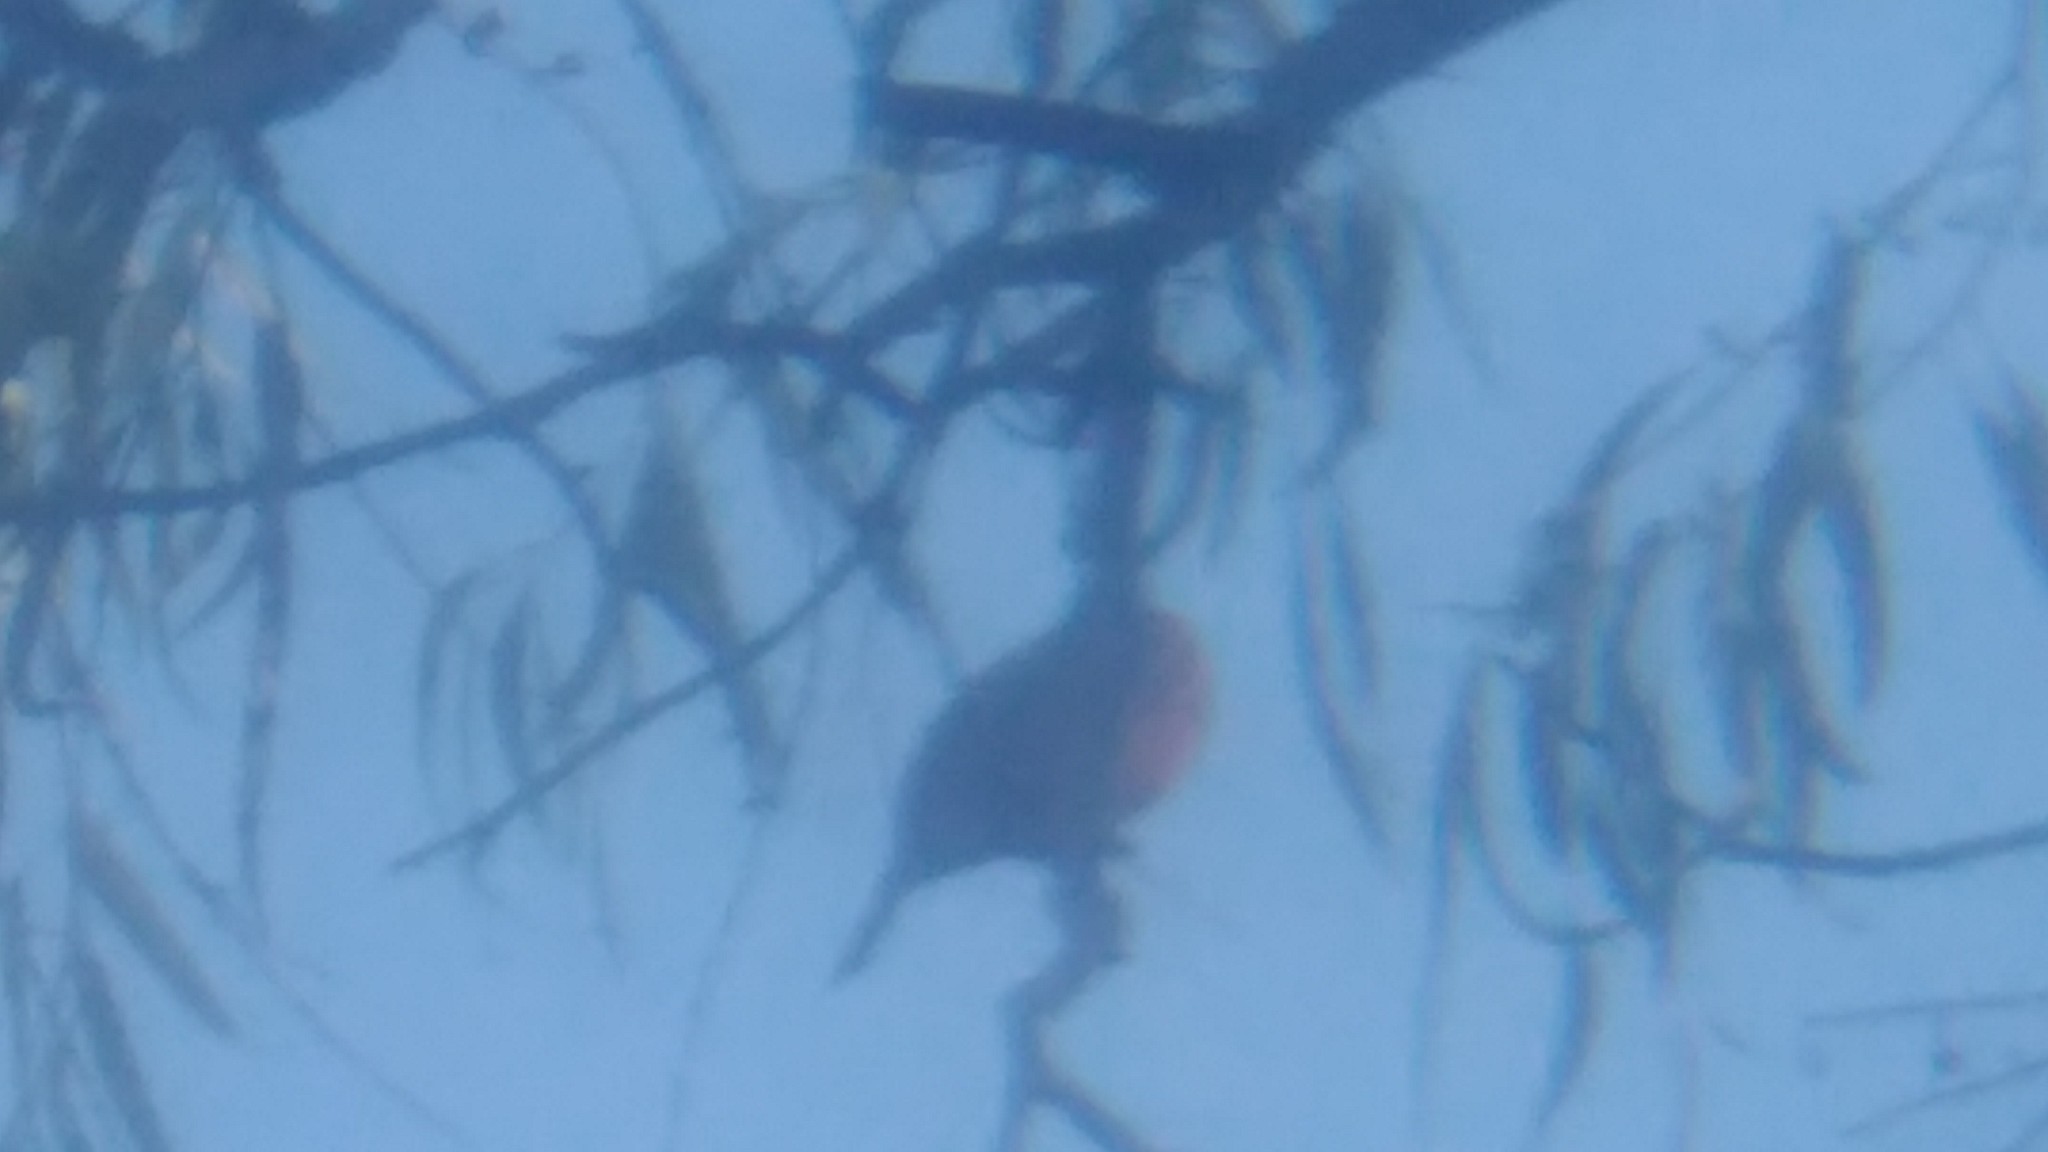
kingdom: Animalia
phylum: Chordata
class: Aves
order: Passeriformes
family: Cardinalidae
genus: Piranga
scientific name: Piranga flava
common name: Red tanager
